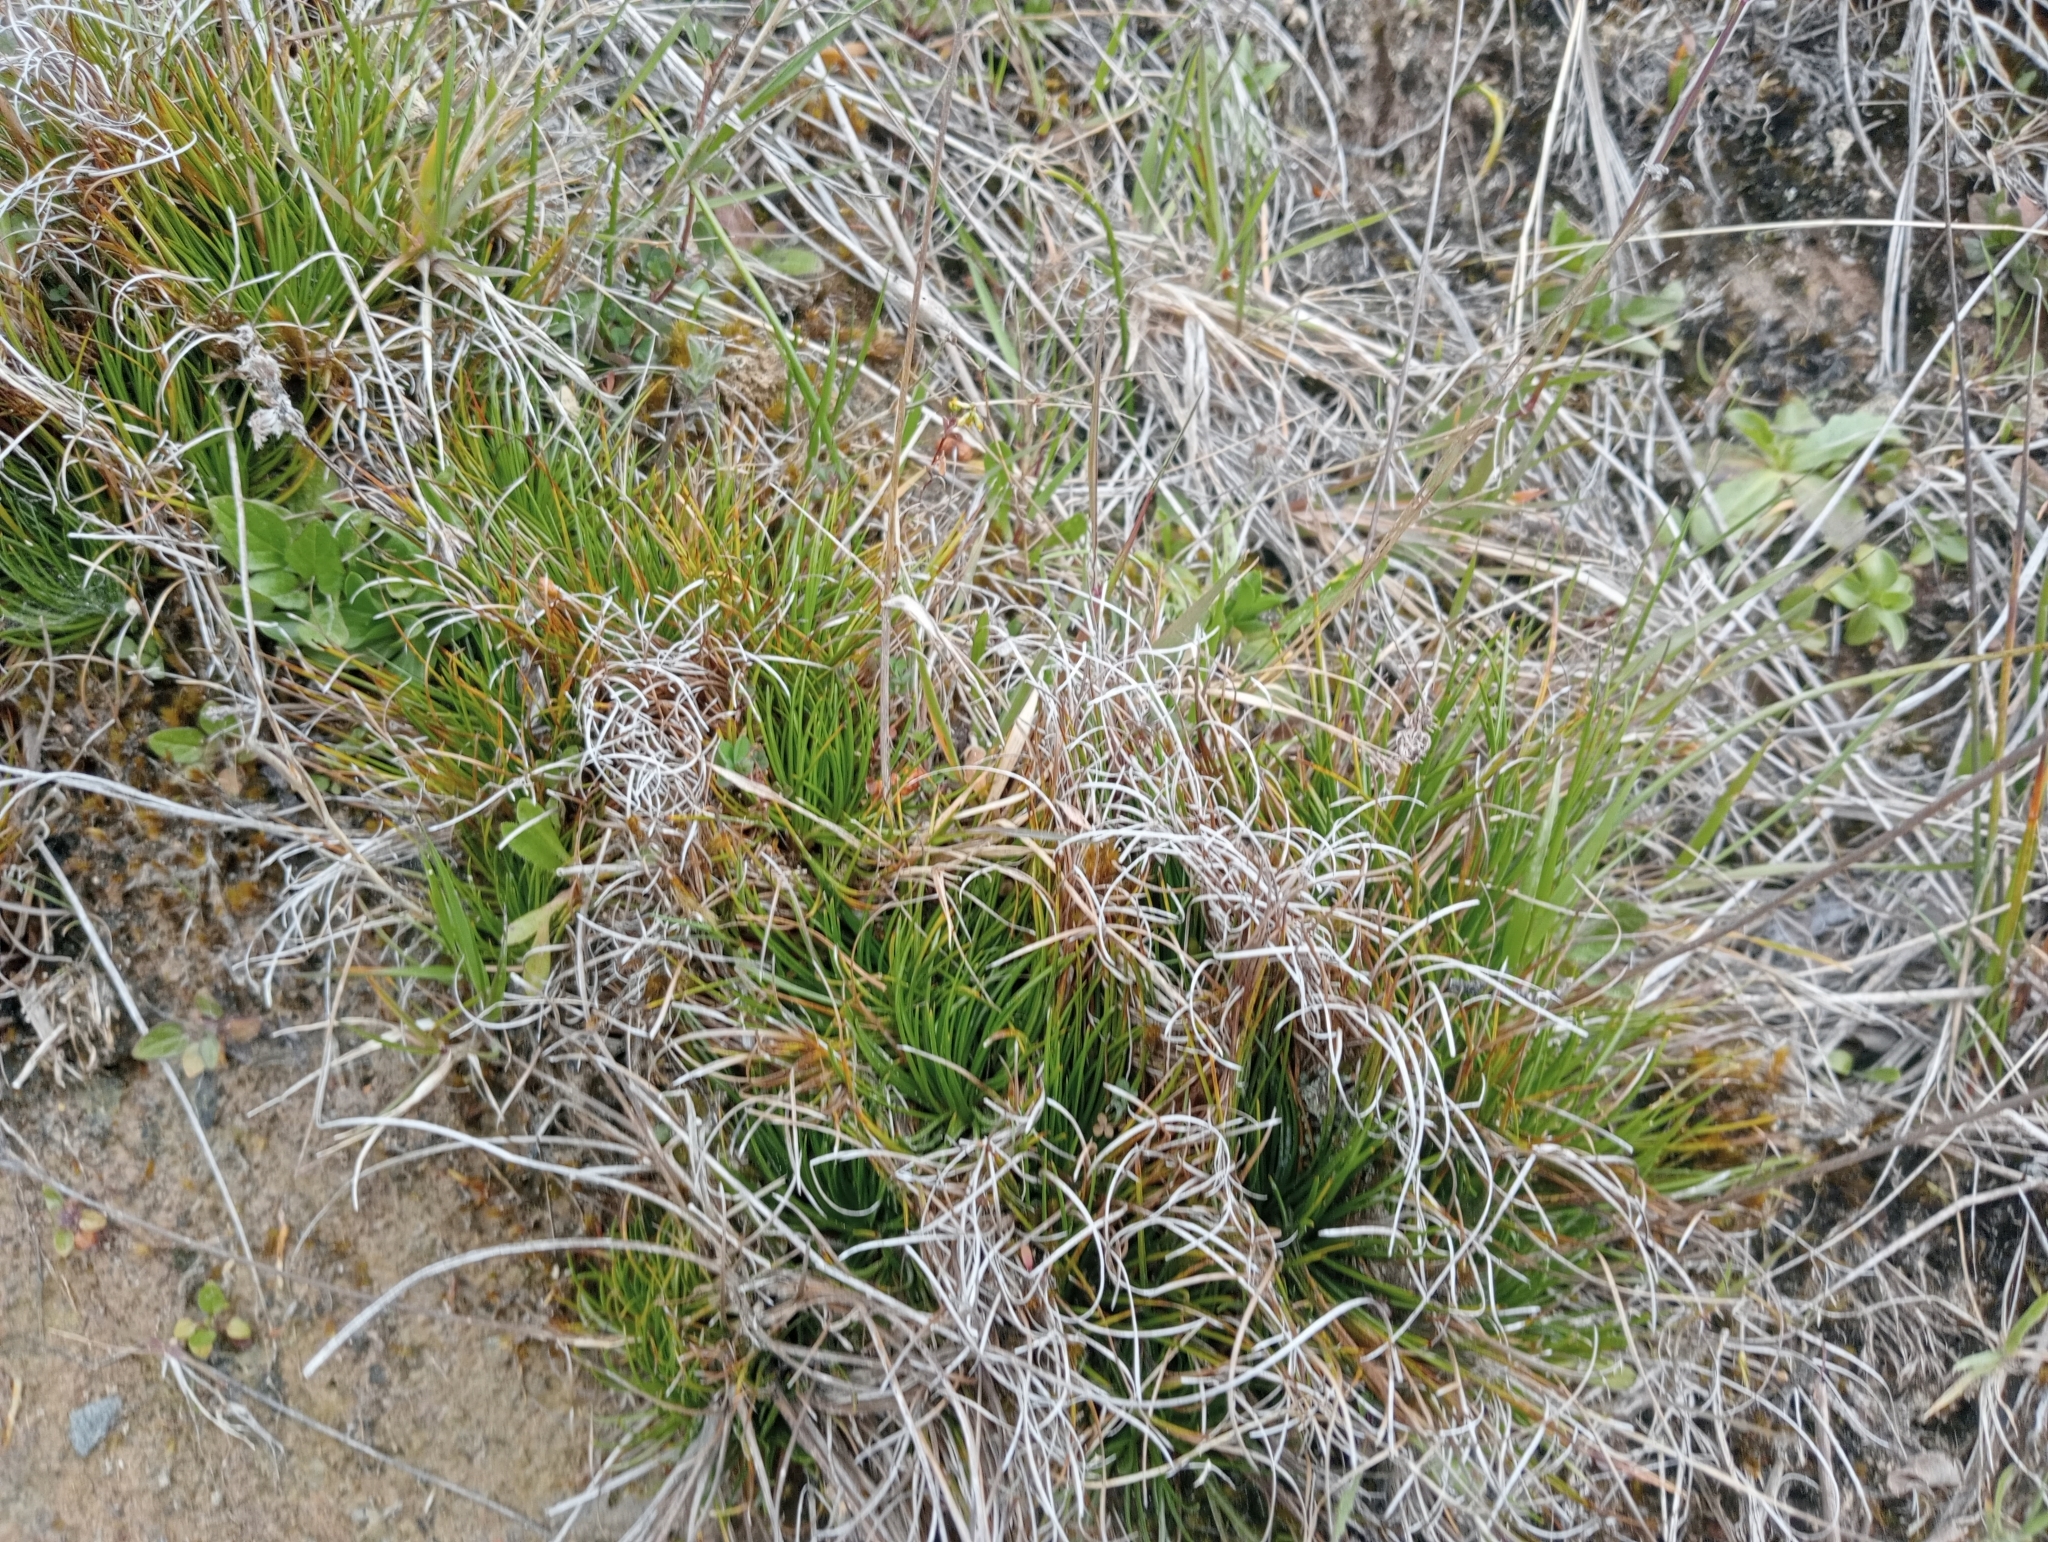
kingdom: Plantae
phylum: Tracheophyta
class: Liliopsida
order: Poales
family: Juncaceae
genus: Juncus
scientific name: Juncus squarrosus
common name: Heath rush
